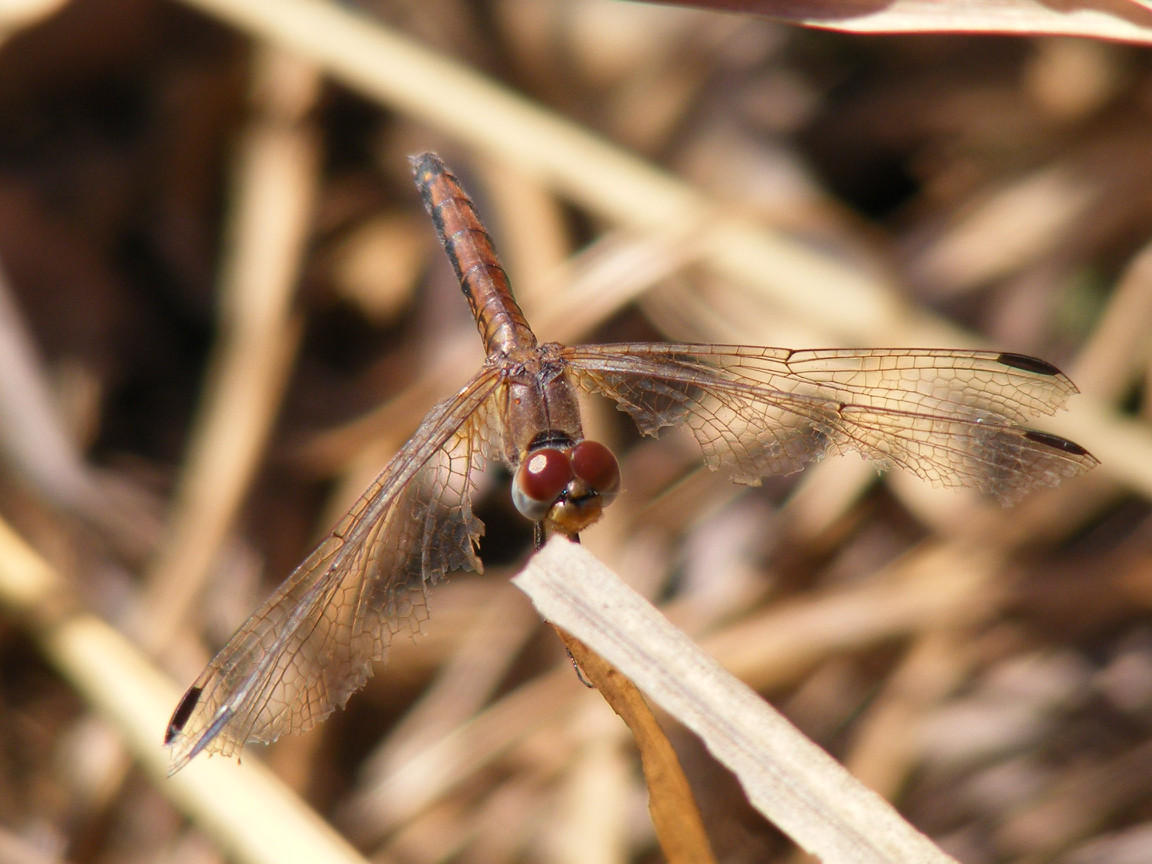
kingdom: Animalia
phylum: Arthropoda
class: Insecta
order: Odonata
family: Libellulidae
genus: Trithemis
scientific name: Trithemis arteriosa
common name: Red-veined dropwing
